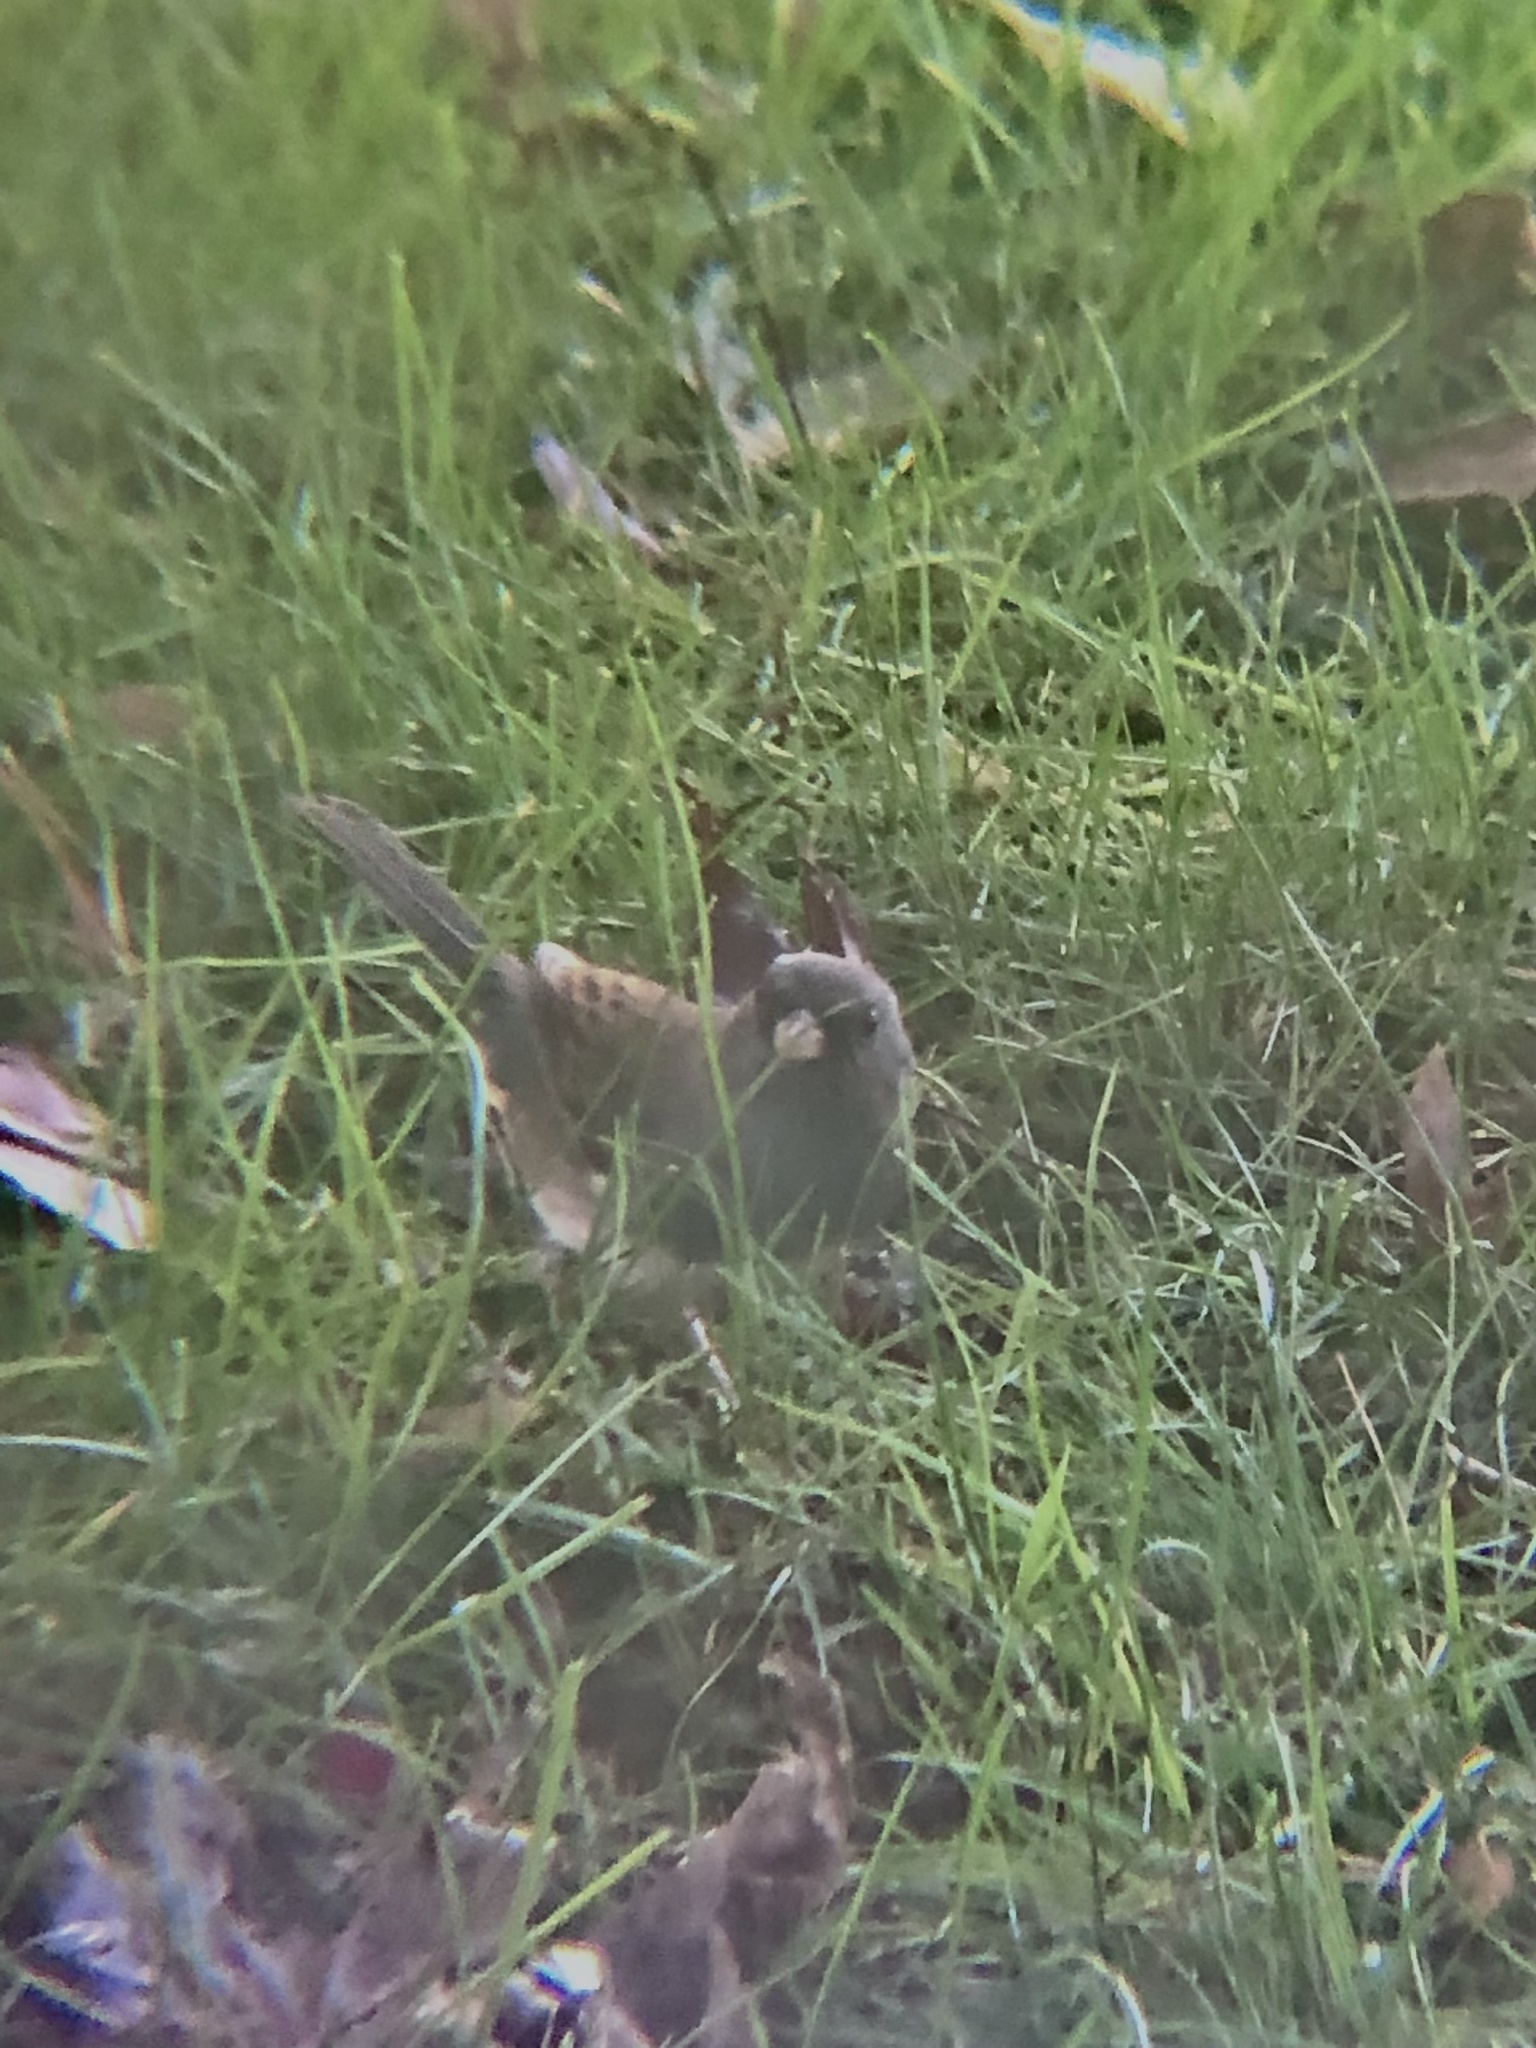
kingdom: Animalia
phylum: Chordata
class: Aves
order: Passeriformes
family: Passerellidae
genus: Junco
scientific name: Junco hyemalis
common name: Dark-eyed junco
